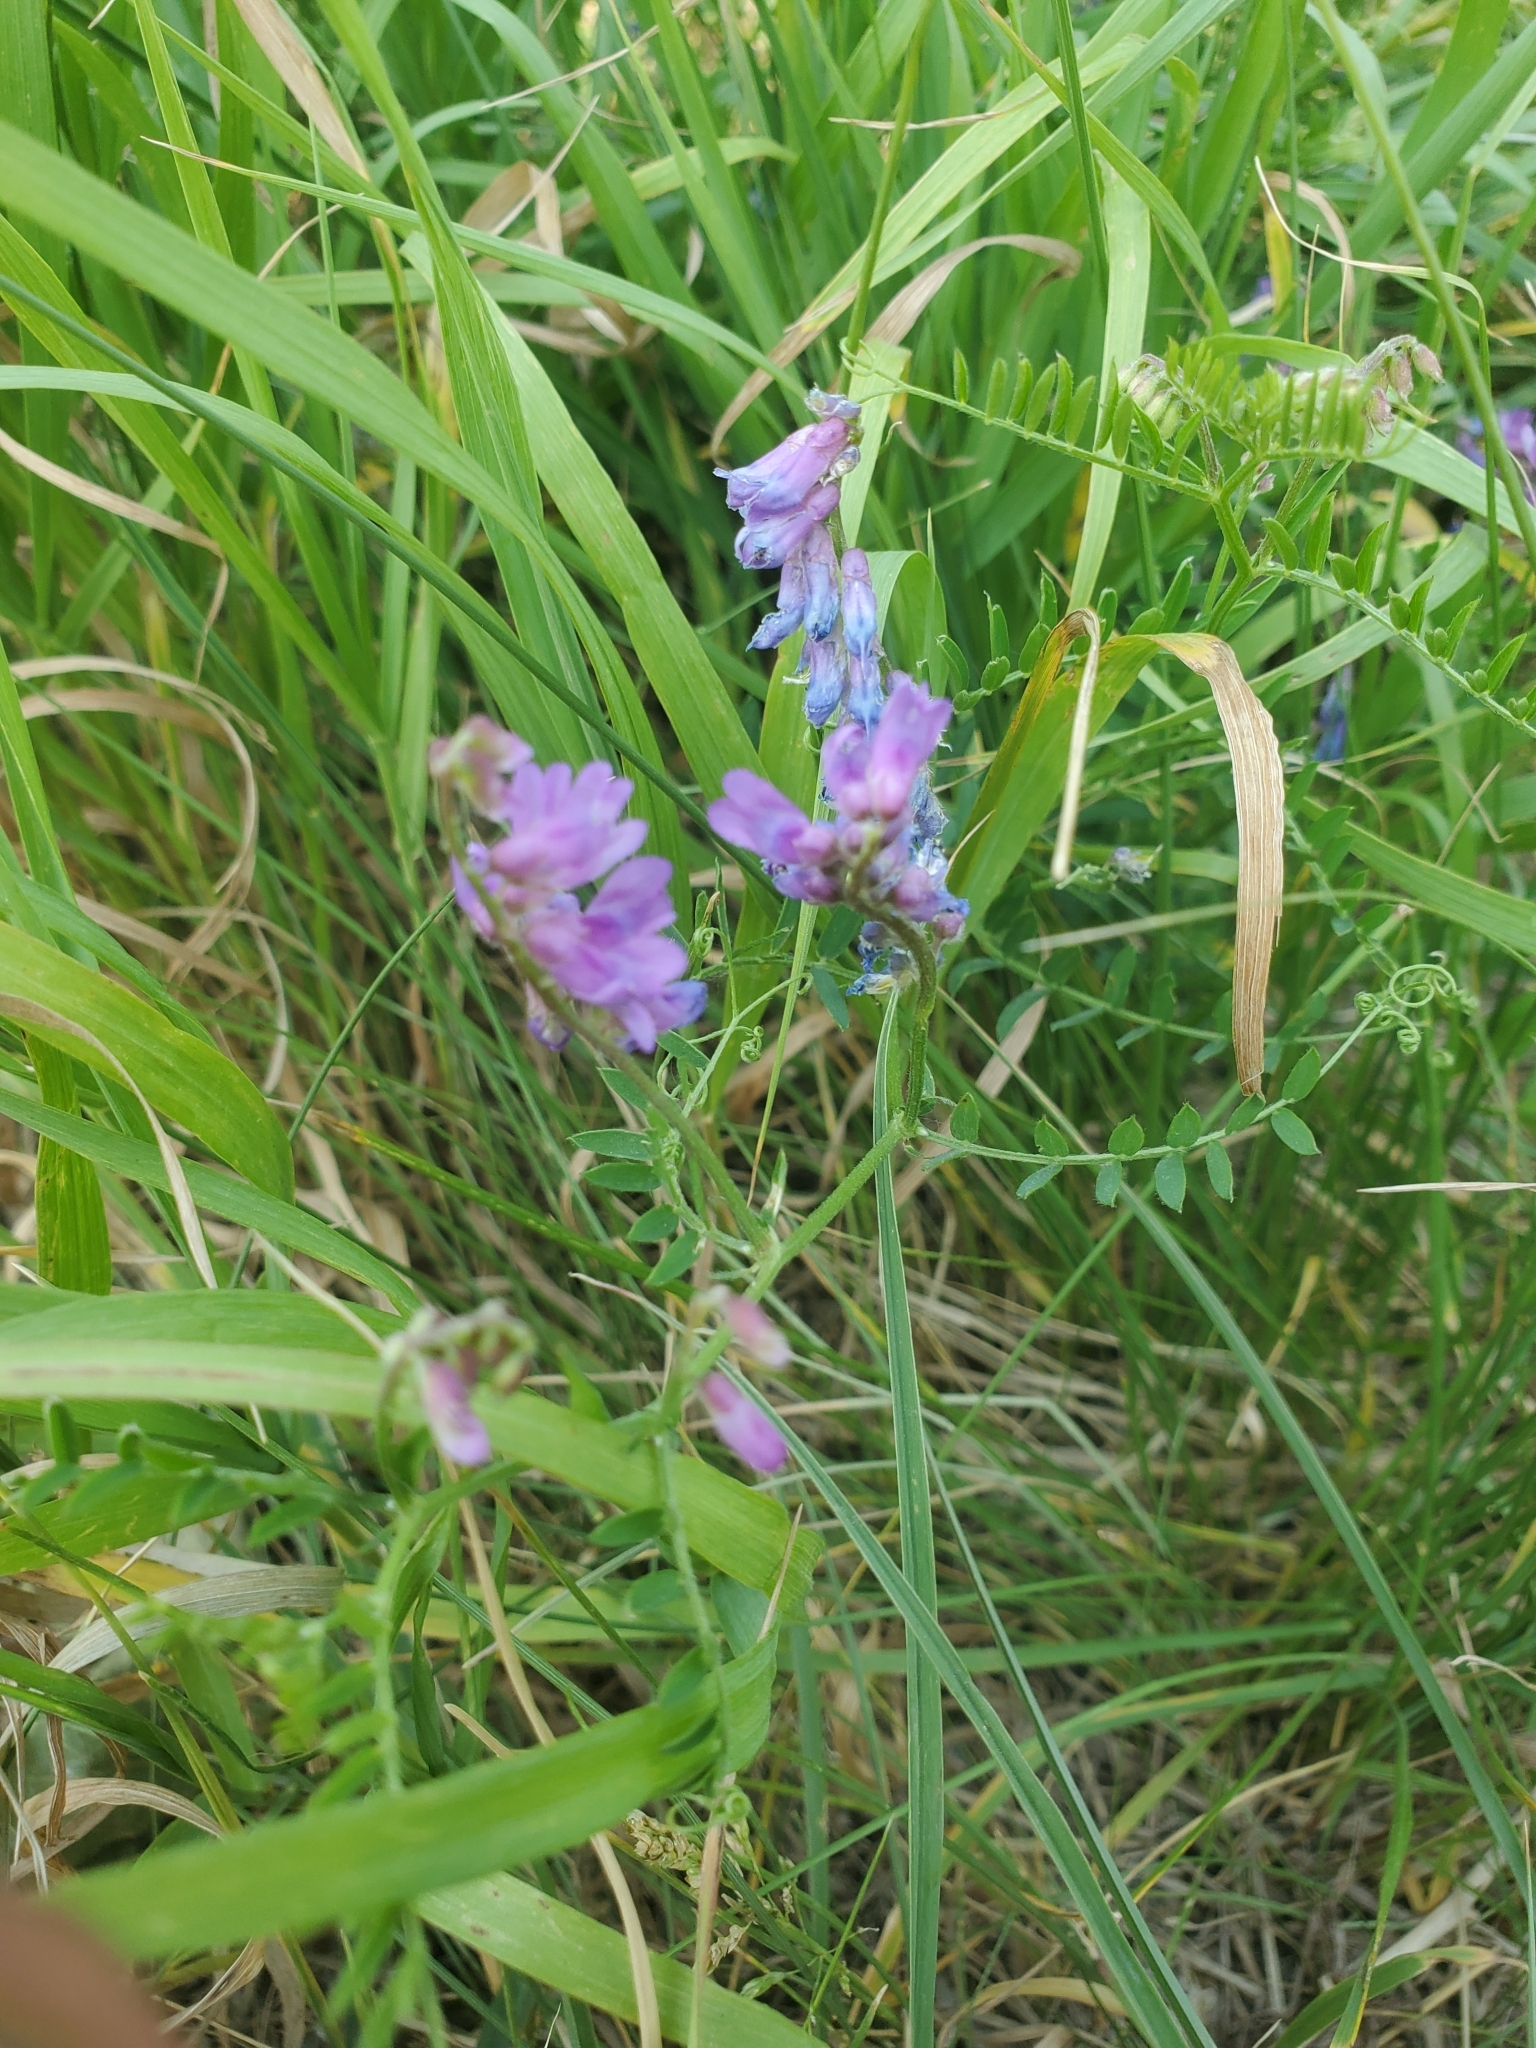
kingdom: Plantae
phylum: Tracheophyta
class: Magnoliopsida
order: Fabales
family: Fabaceae
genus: Vicia
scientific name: Vicia cracca
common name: Bird vetch
